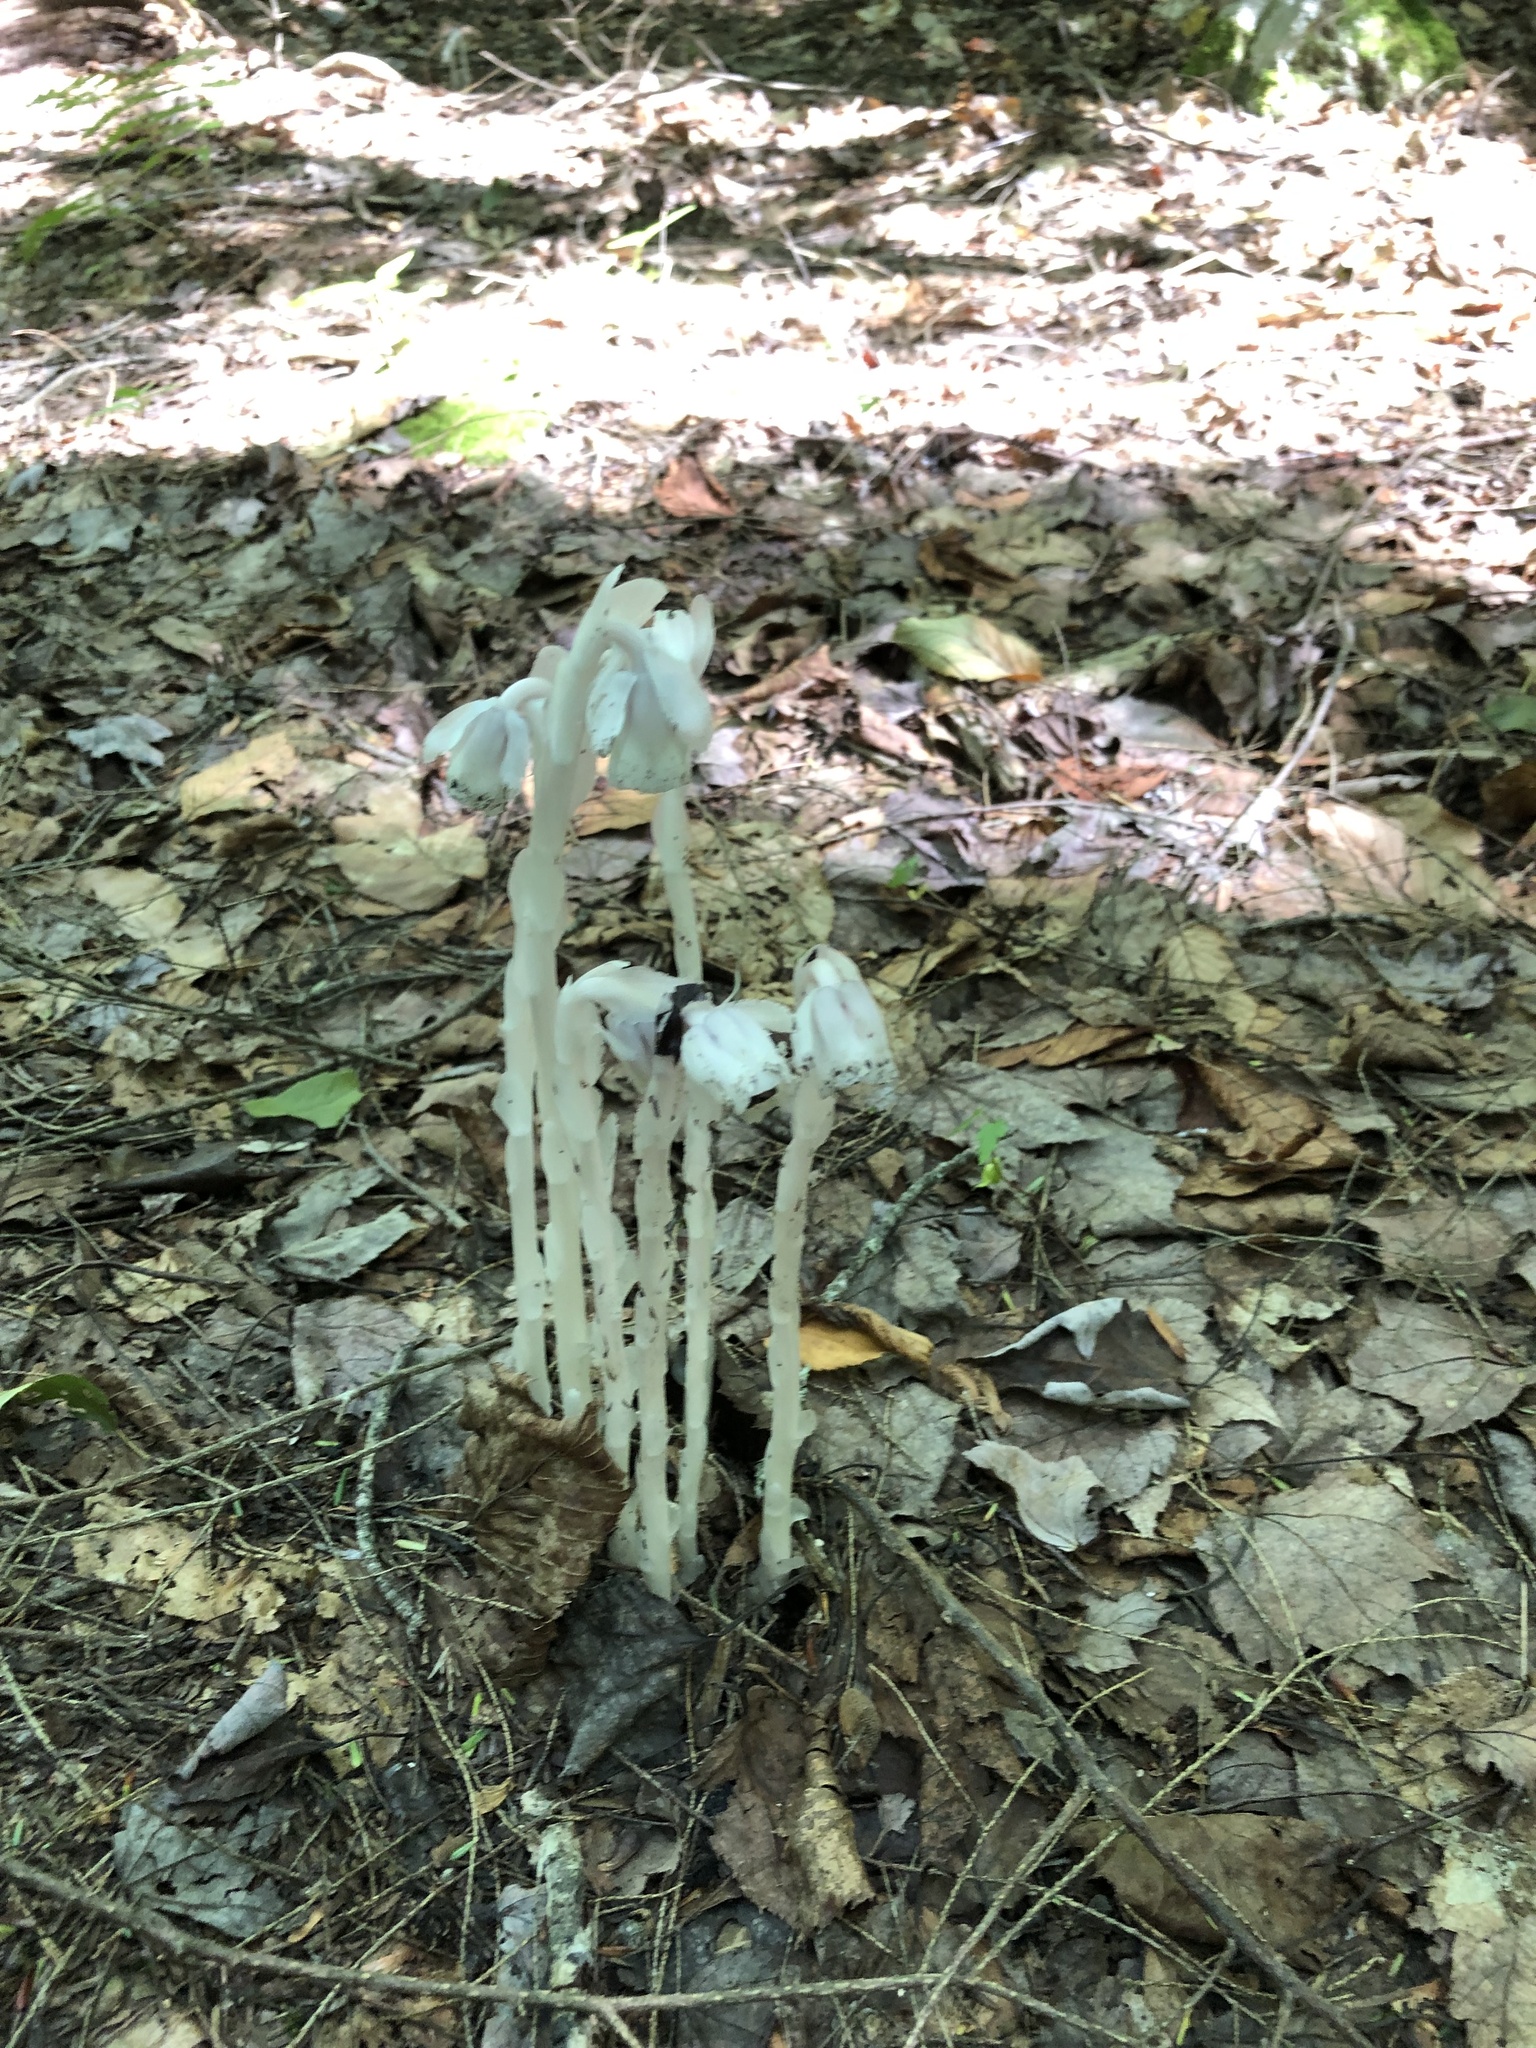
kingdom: Plantae
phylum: Tracheophyta
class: Magnoliopsida
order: Ericales
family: Ericaceae
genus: Monotropa
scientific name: Monotropa uniflora
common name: Convulsion root
